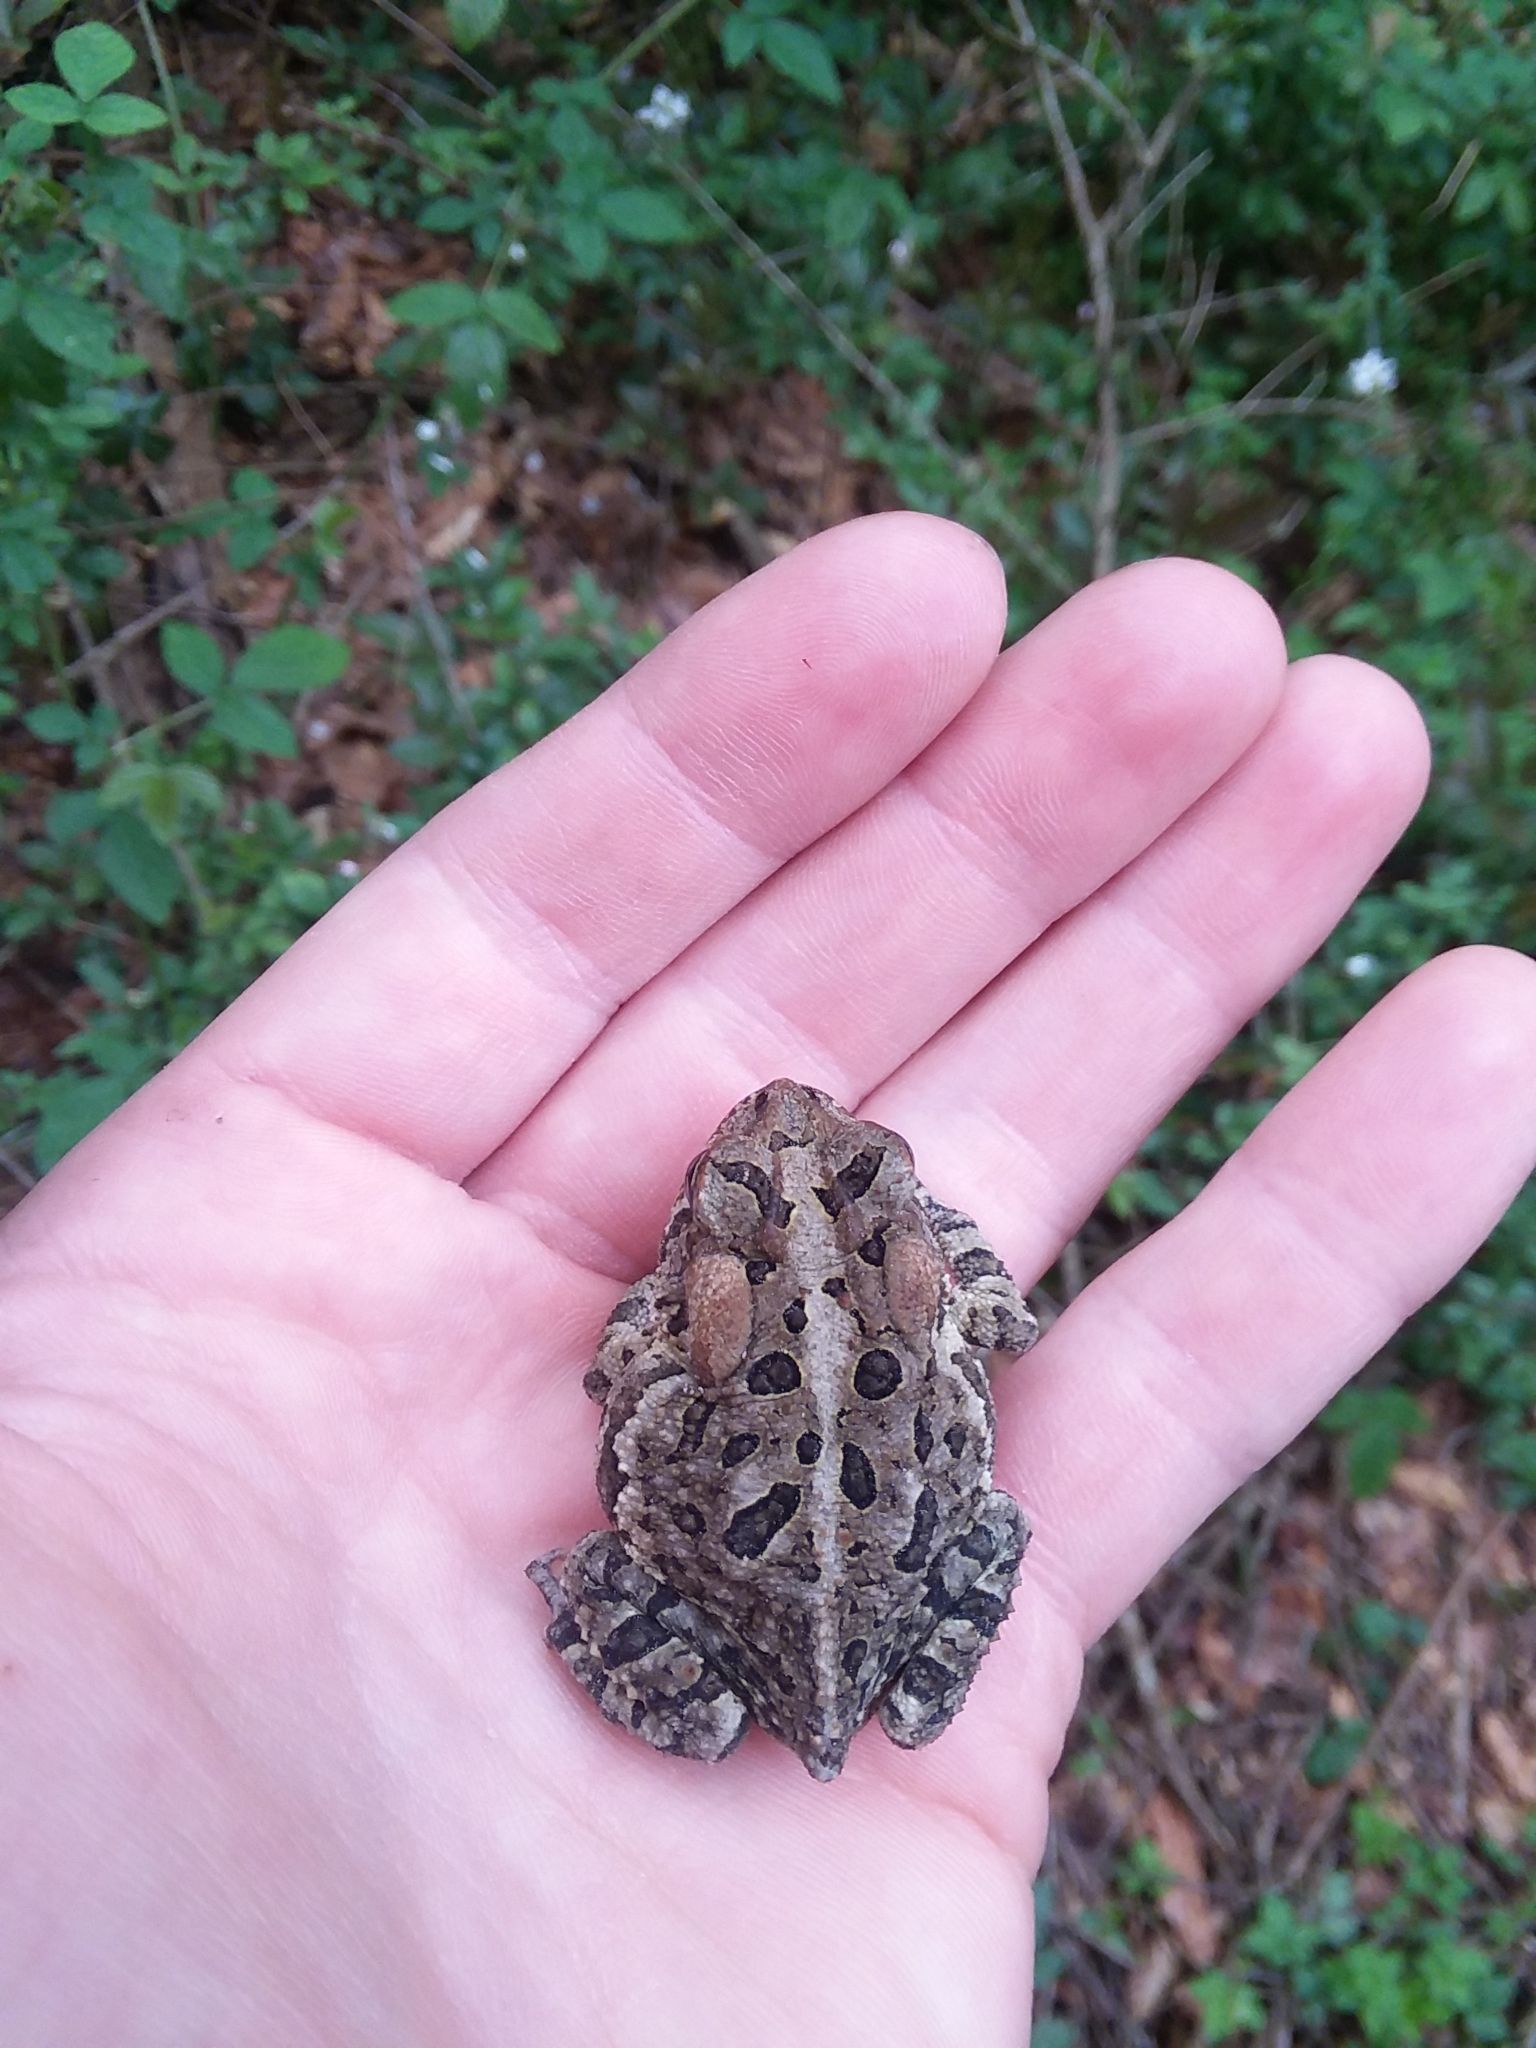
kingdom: Animalia
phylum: Chordata
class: Amphibia
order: Anura
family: Bufonidae
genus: Anaxyrus
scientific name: Anaxyrus terrestris
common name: Southern toad
